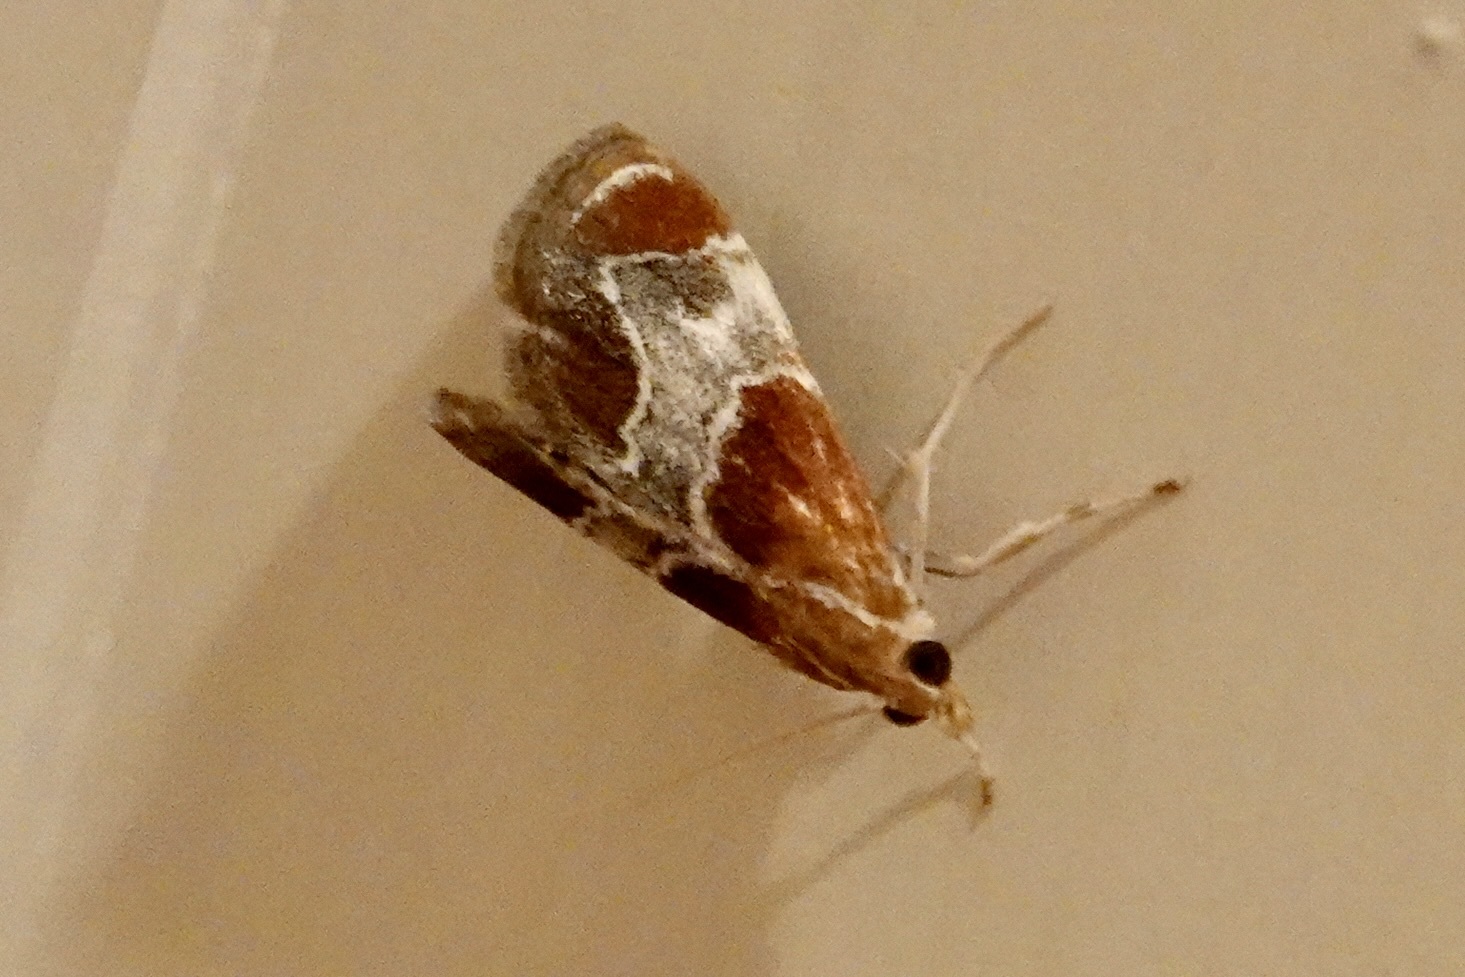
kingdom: Animalia
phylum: Arthropoda
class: Insecta
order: Lepidoptera
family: Crambidae
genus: Chalcoela
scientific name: Chalcoela pegasalis
